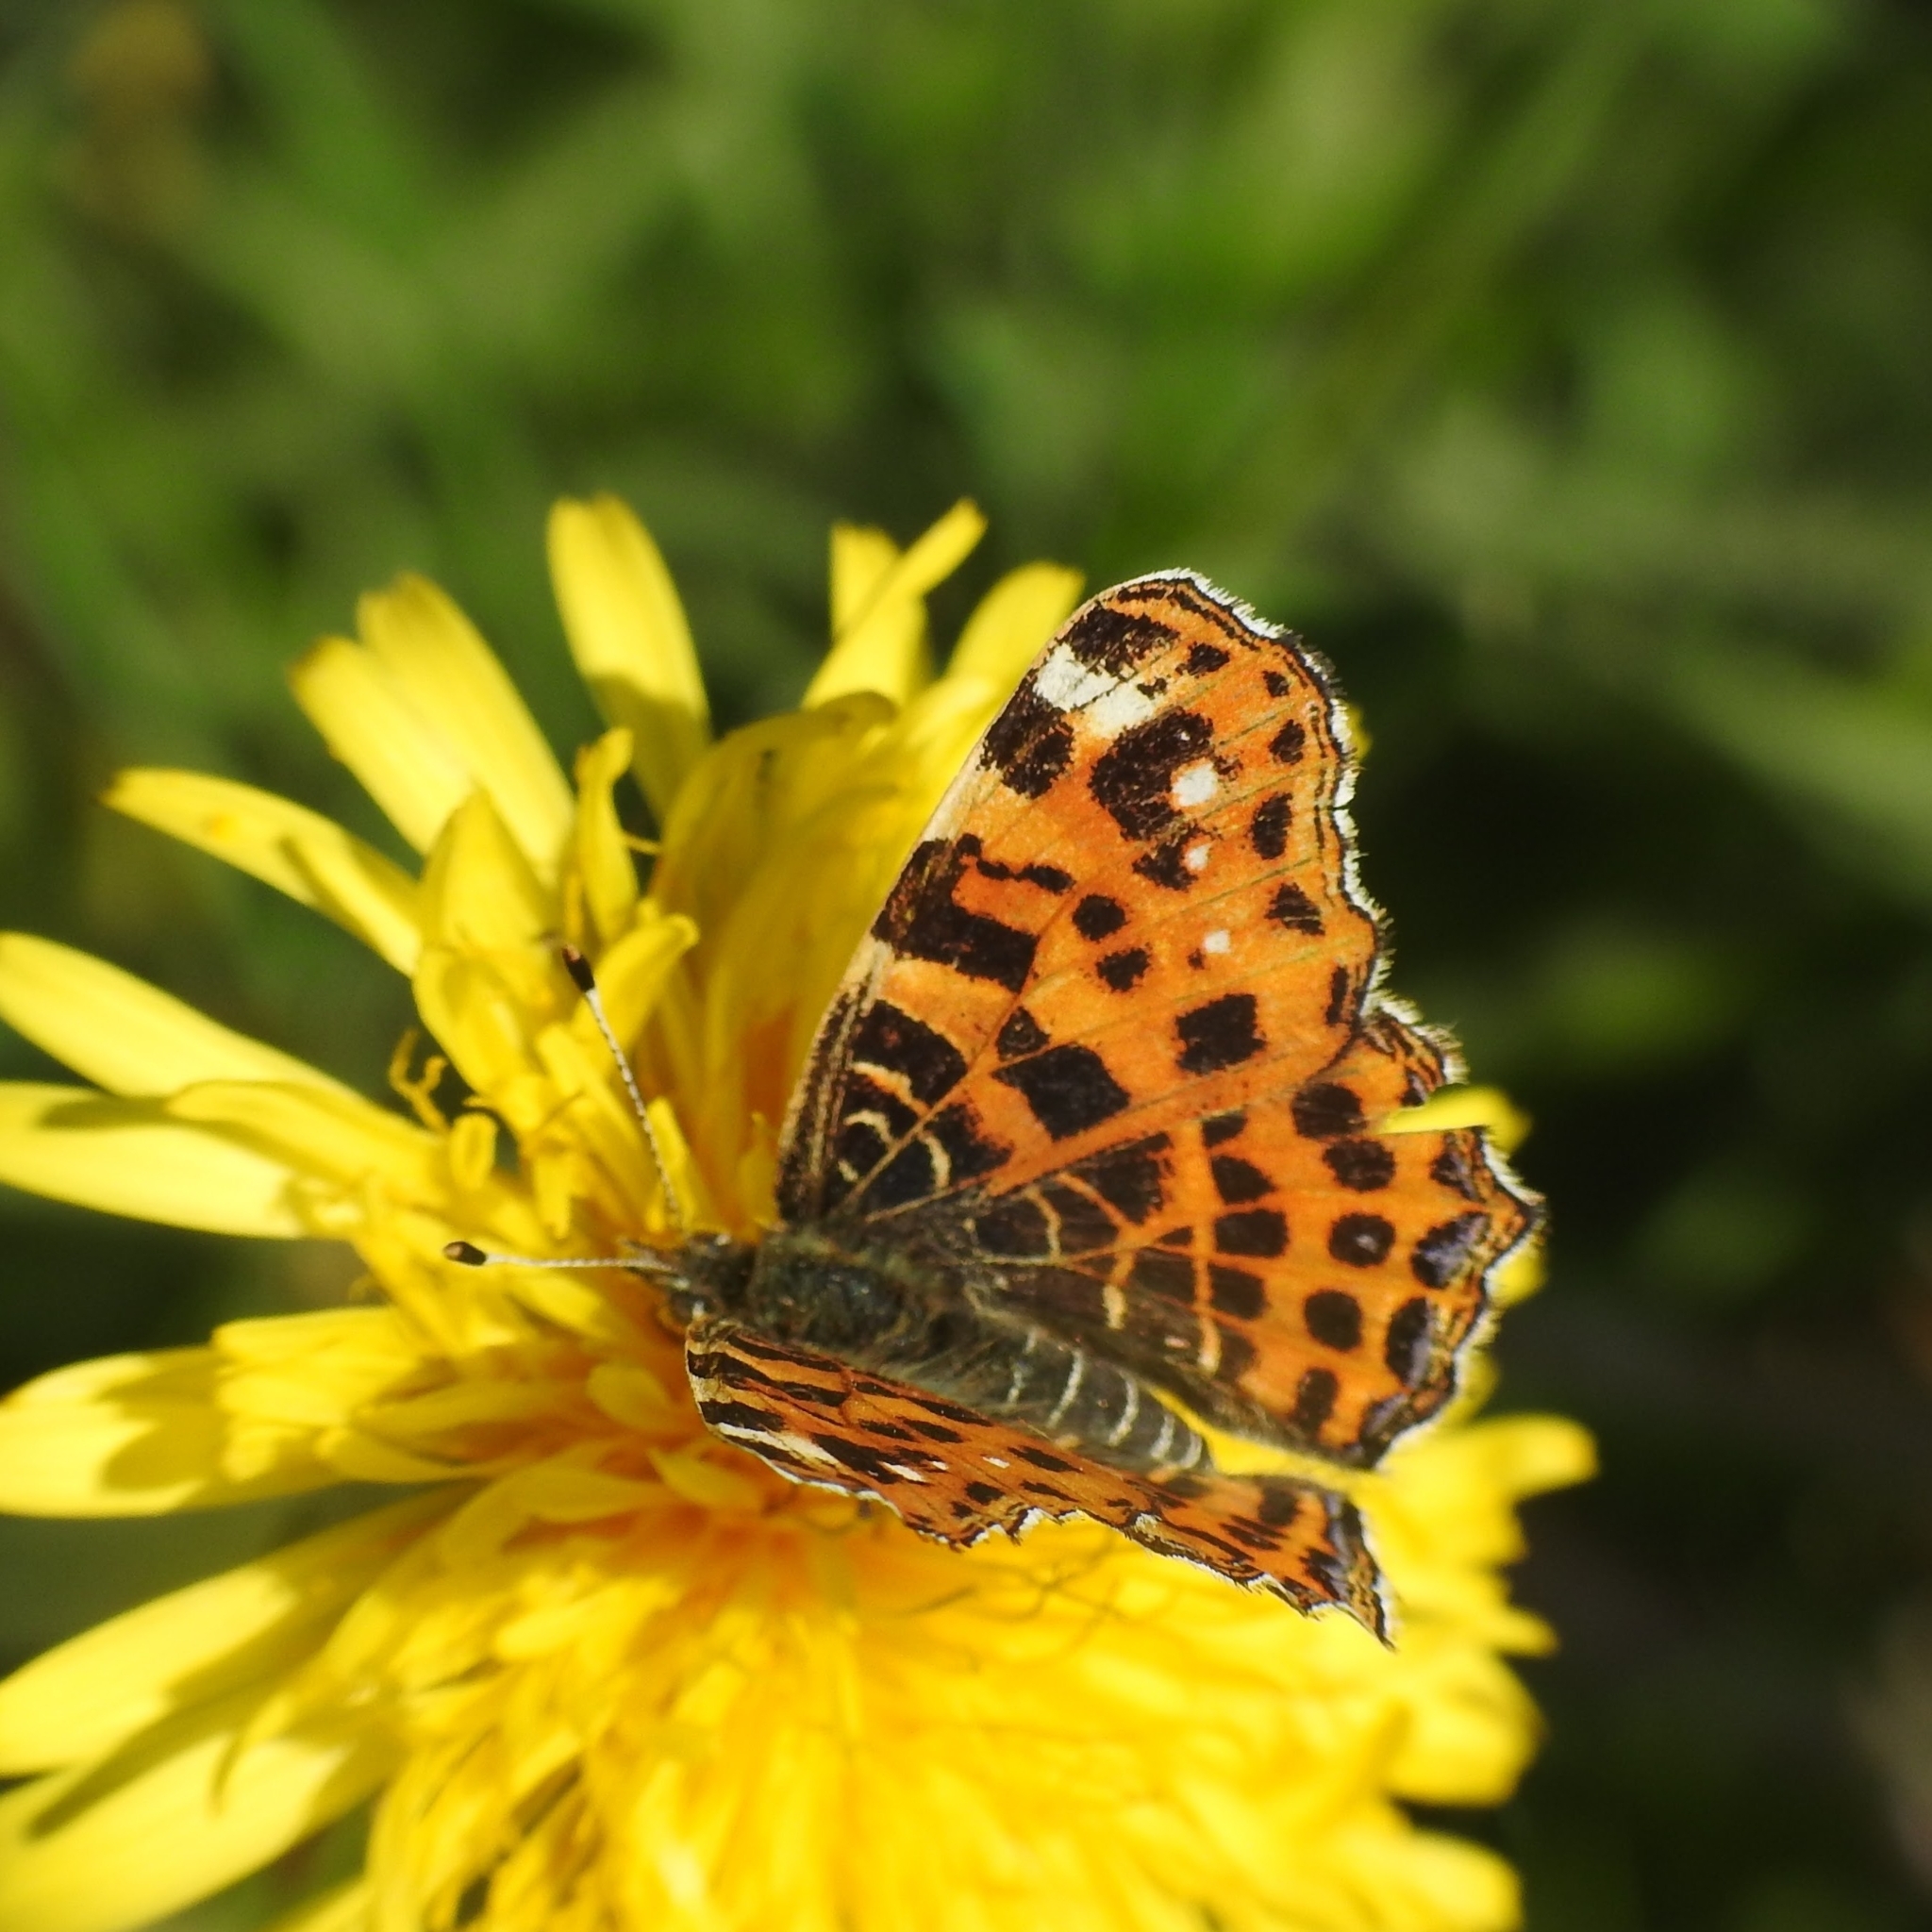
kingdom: Animalia
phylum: Arthropoda
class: Insecta
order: Lepidoptera
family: Nymphalidae
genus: Araschnia
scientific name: Araschnia levana
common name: Map butterfly
